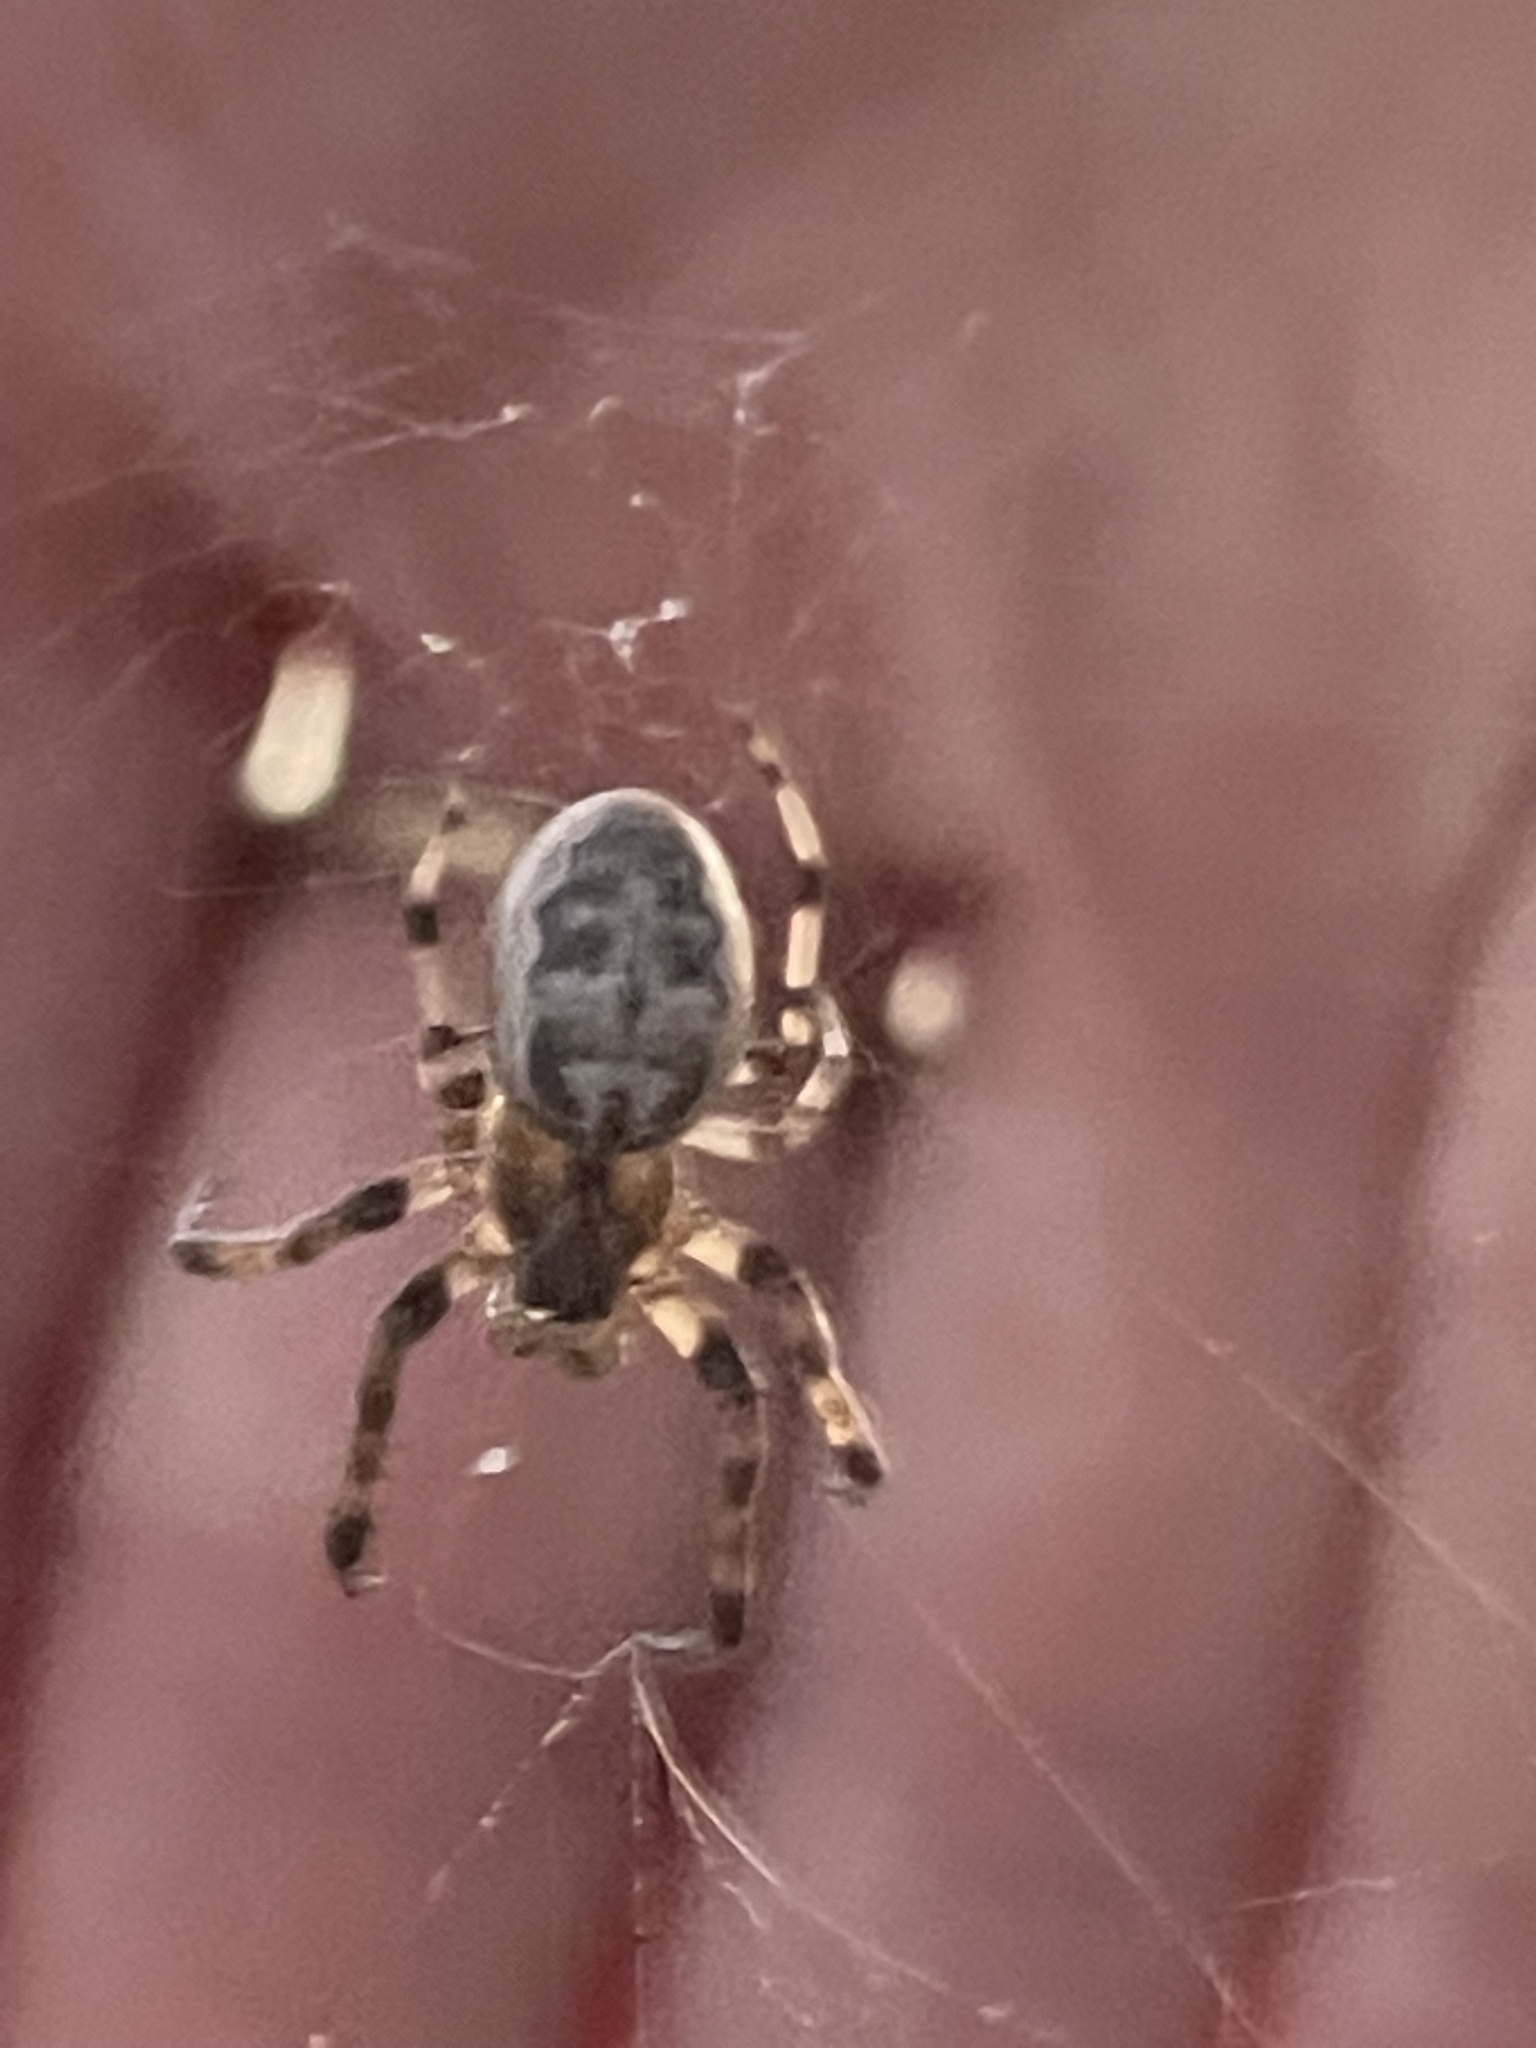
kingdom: Animalia
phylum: Arthropoda
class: Arachnida
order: Araneae
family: Araneidae
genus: Larinioides
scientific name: Larinioides cornutus
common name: Furrow orbweaver
